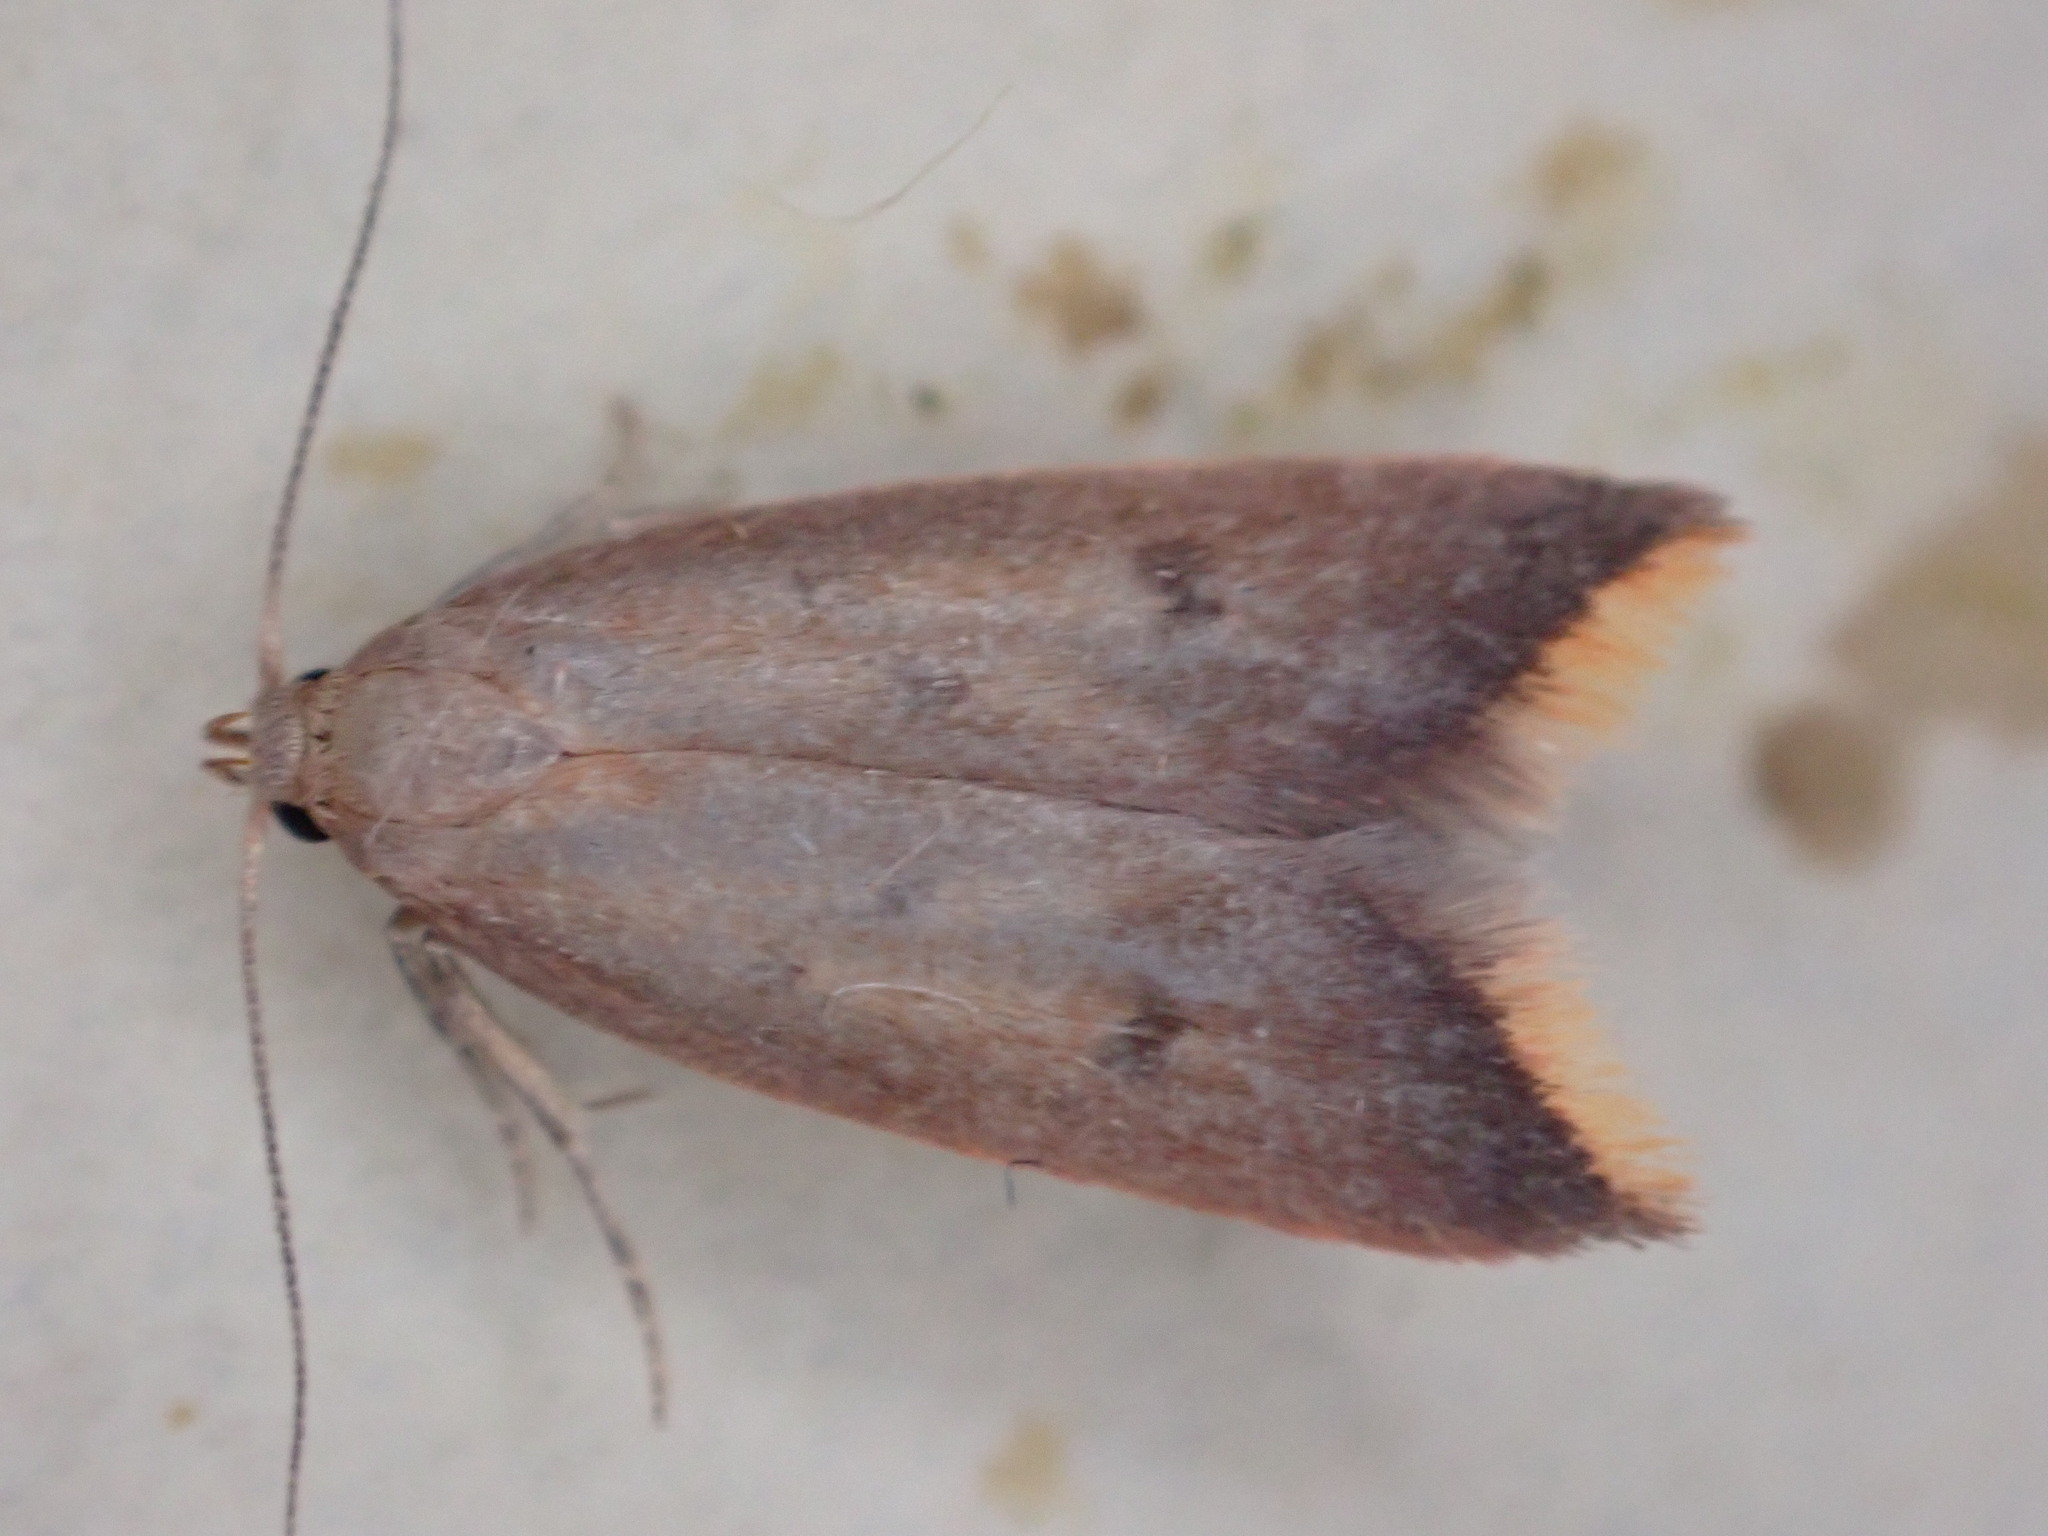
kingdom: Animalia
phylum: Arthropoda
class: Insecta
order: Lepidoptera
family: Oecophoridae
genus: Tachystola
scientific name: Tachystola acroxantha
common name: Ruddy streak
